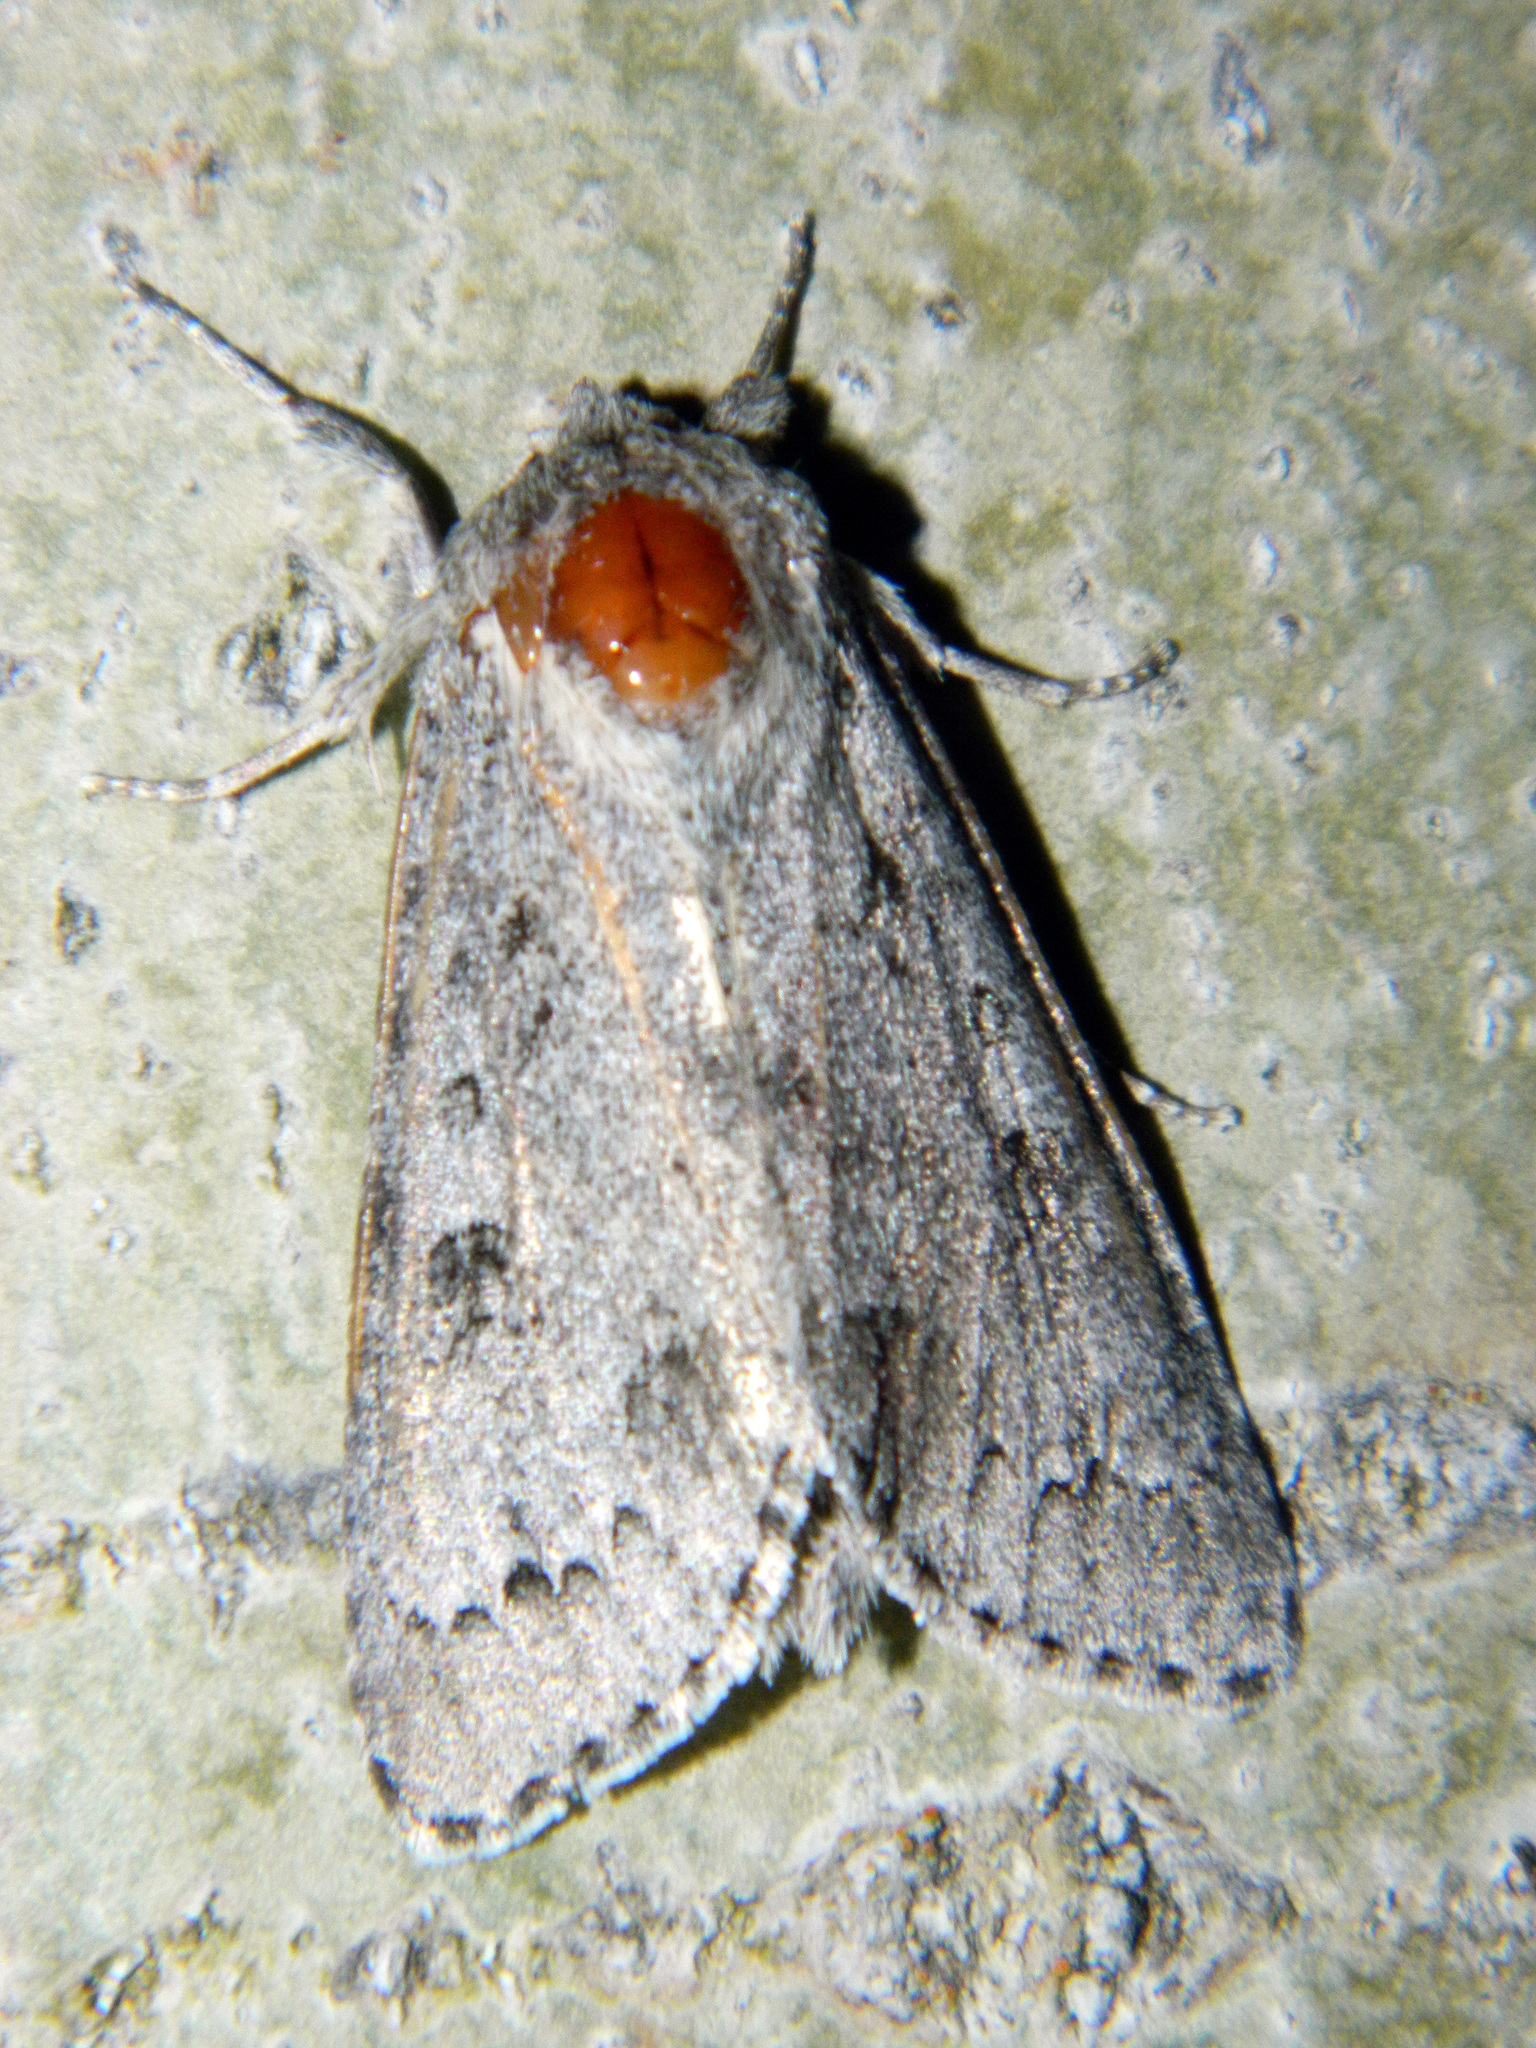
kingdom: Animalia
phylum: Arthropoda
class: Insecta
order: Lepidoptera
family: Noctuidae
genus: Acronicta
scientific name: Acronicta insita
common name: Large gray dagger
